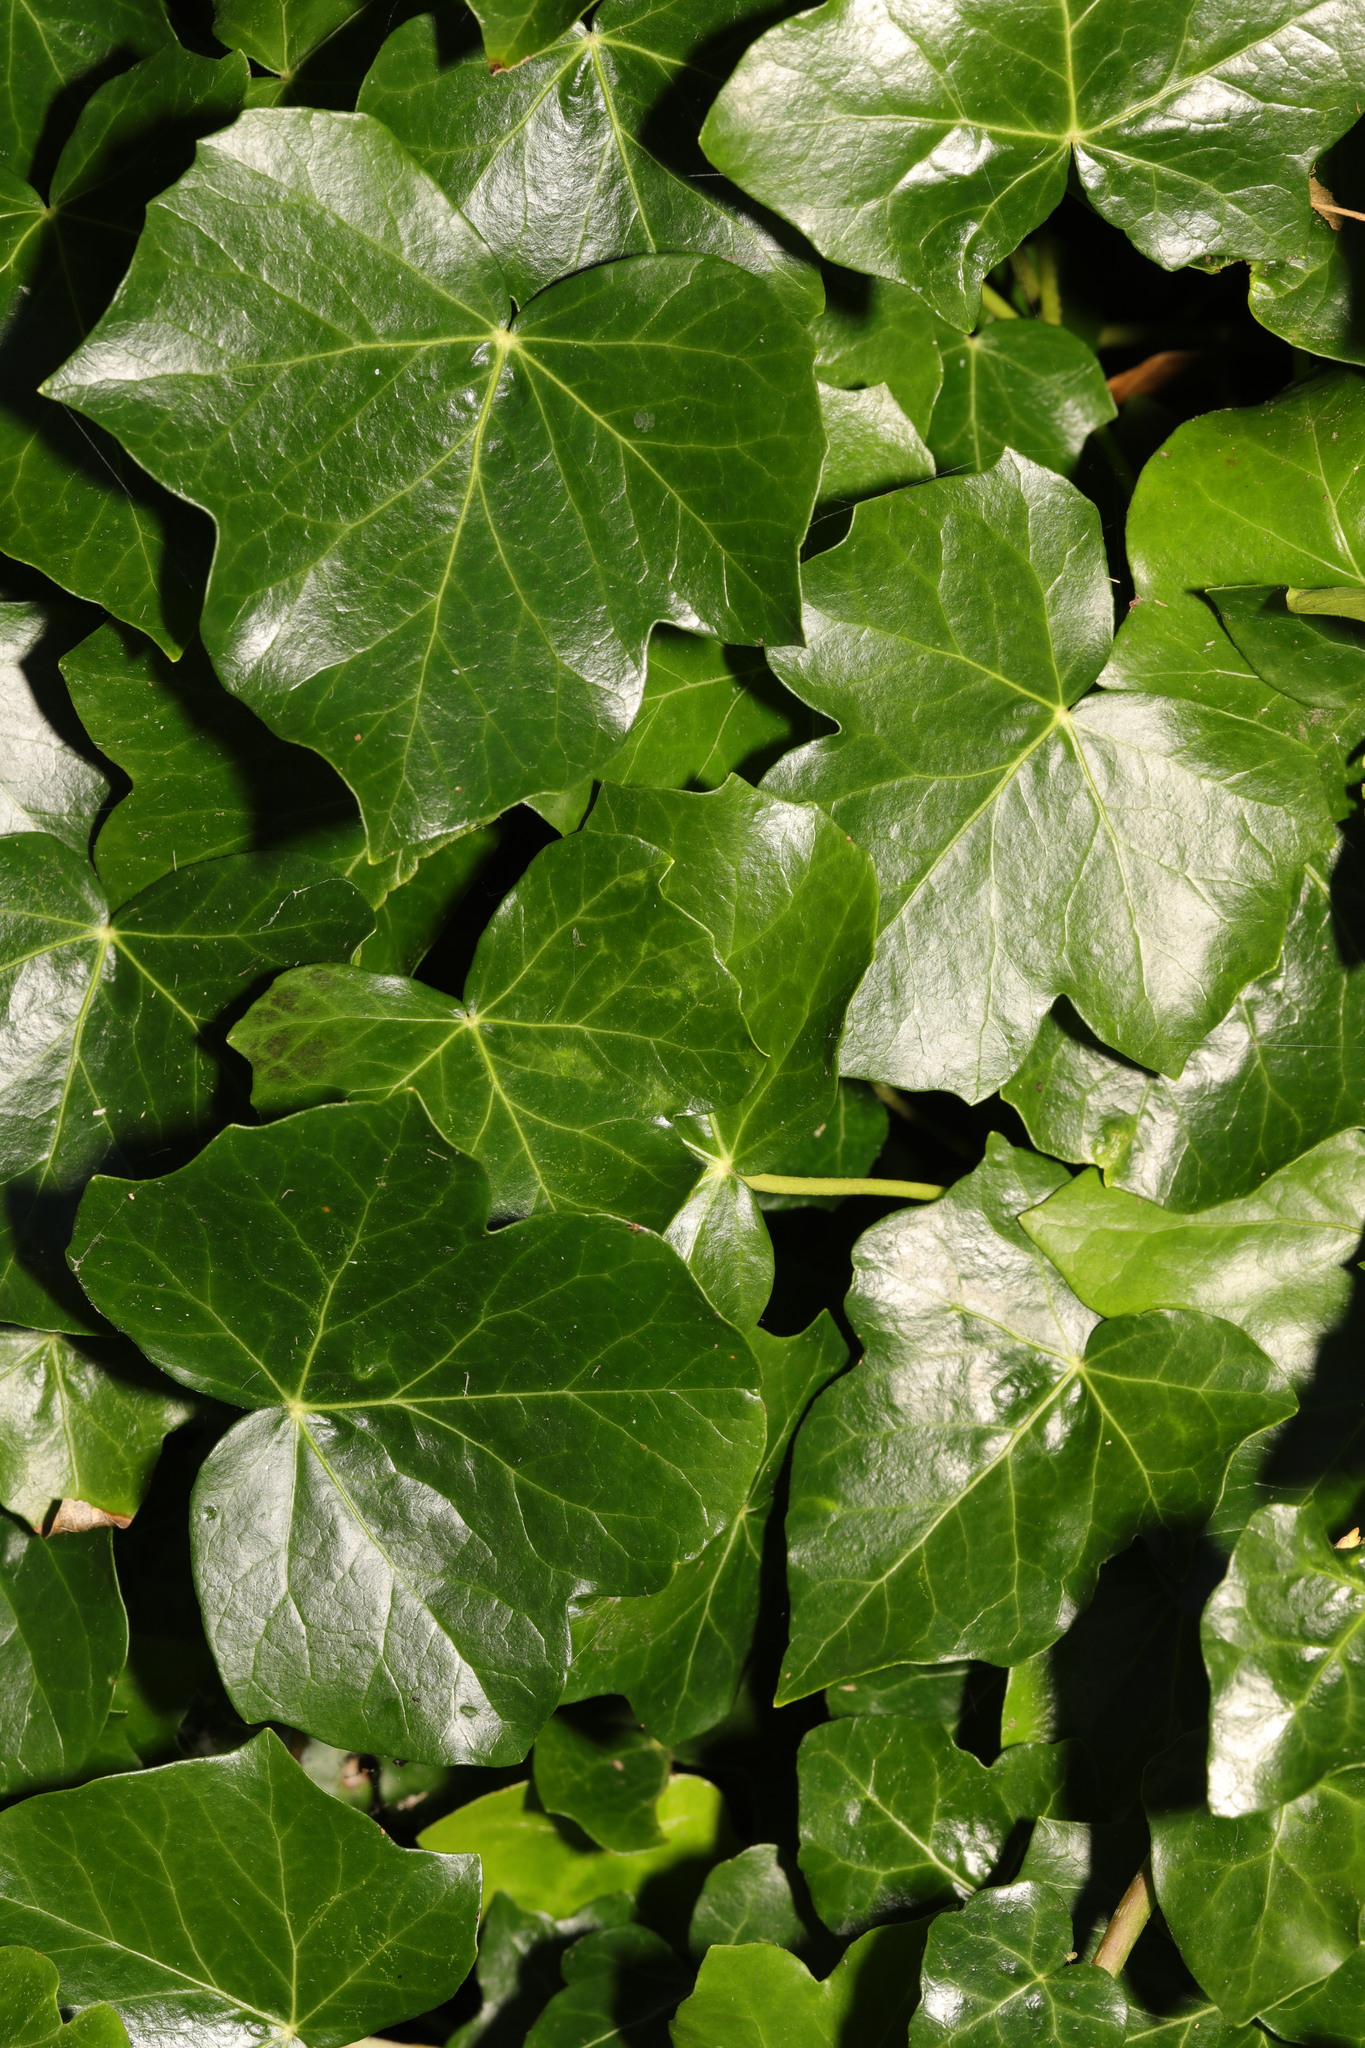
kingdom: Plantae
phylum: Tracheophyta
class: Magnoliopsida
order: Apiales
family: Araliaceae
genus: Hedera
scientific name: Hedera helix
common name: Ivy
